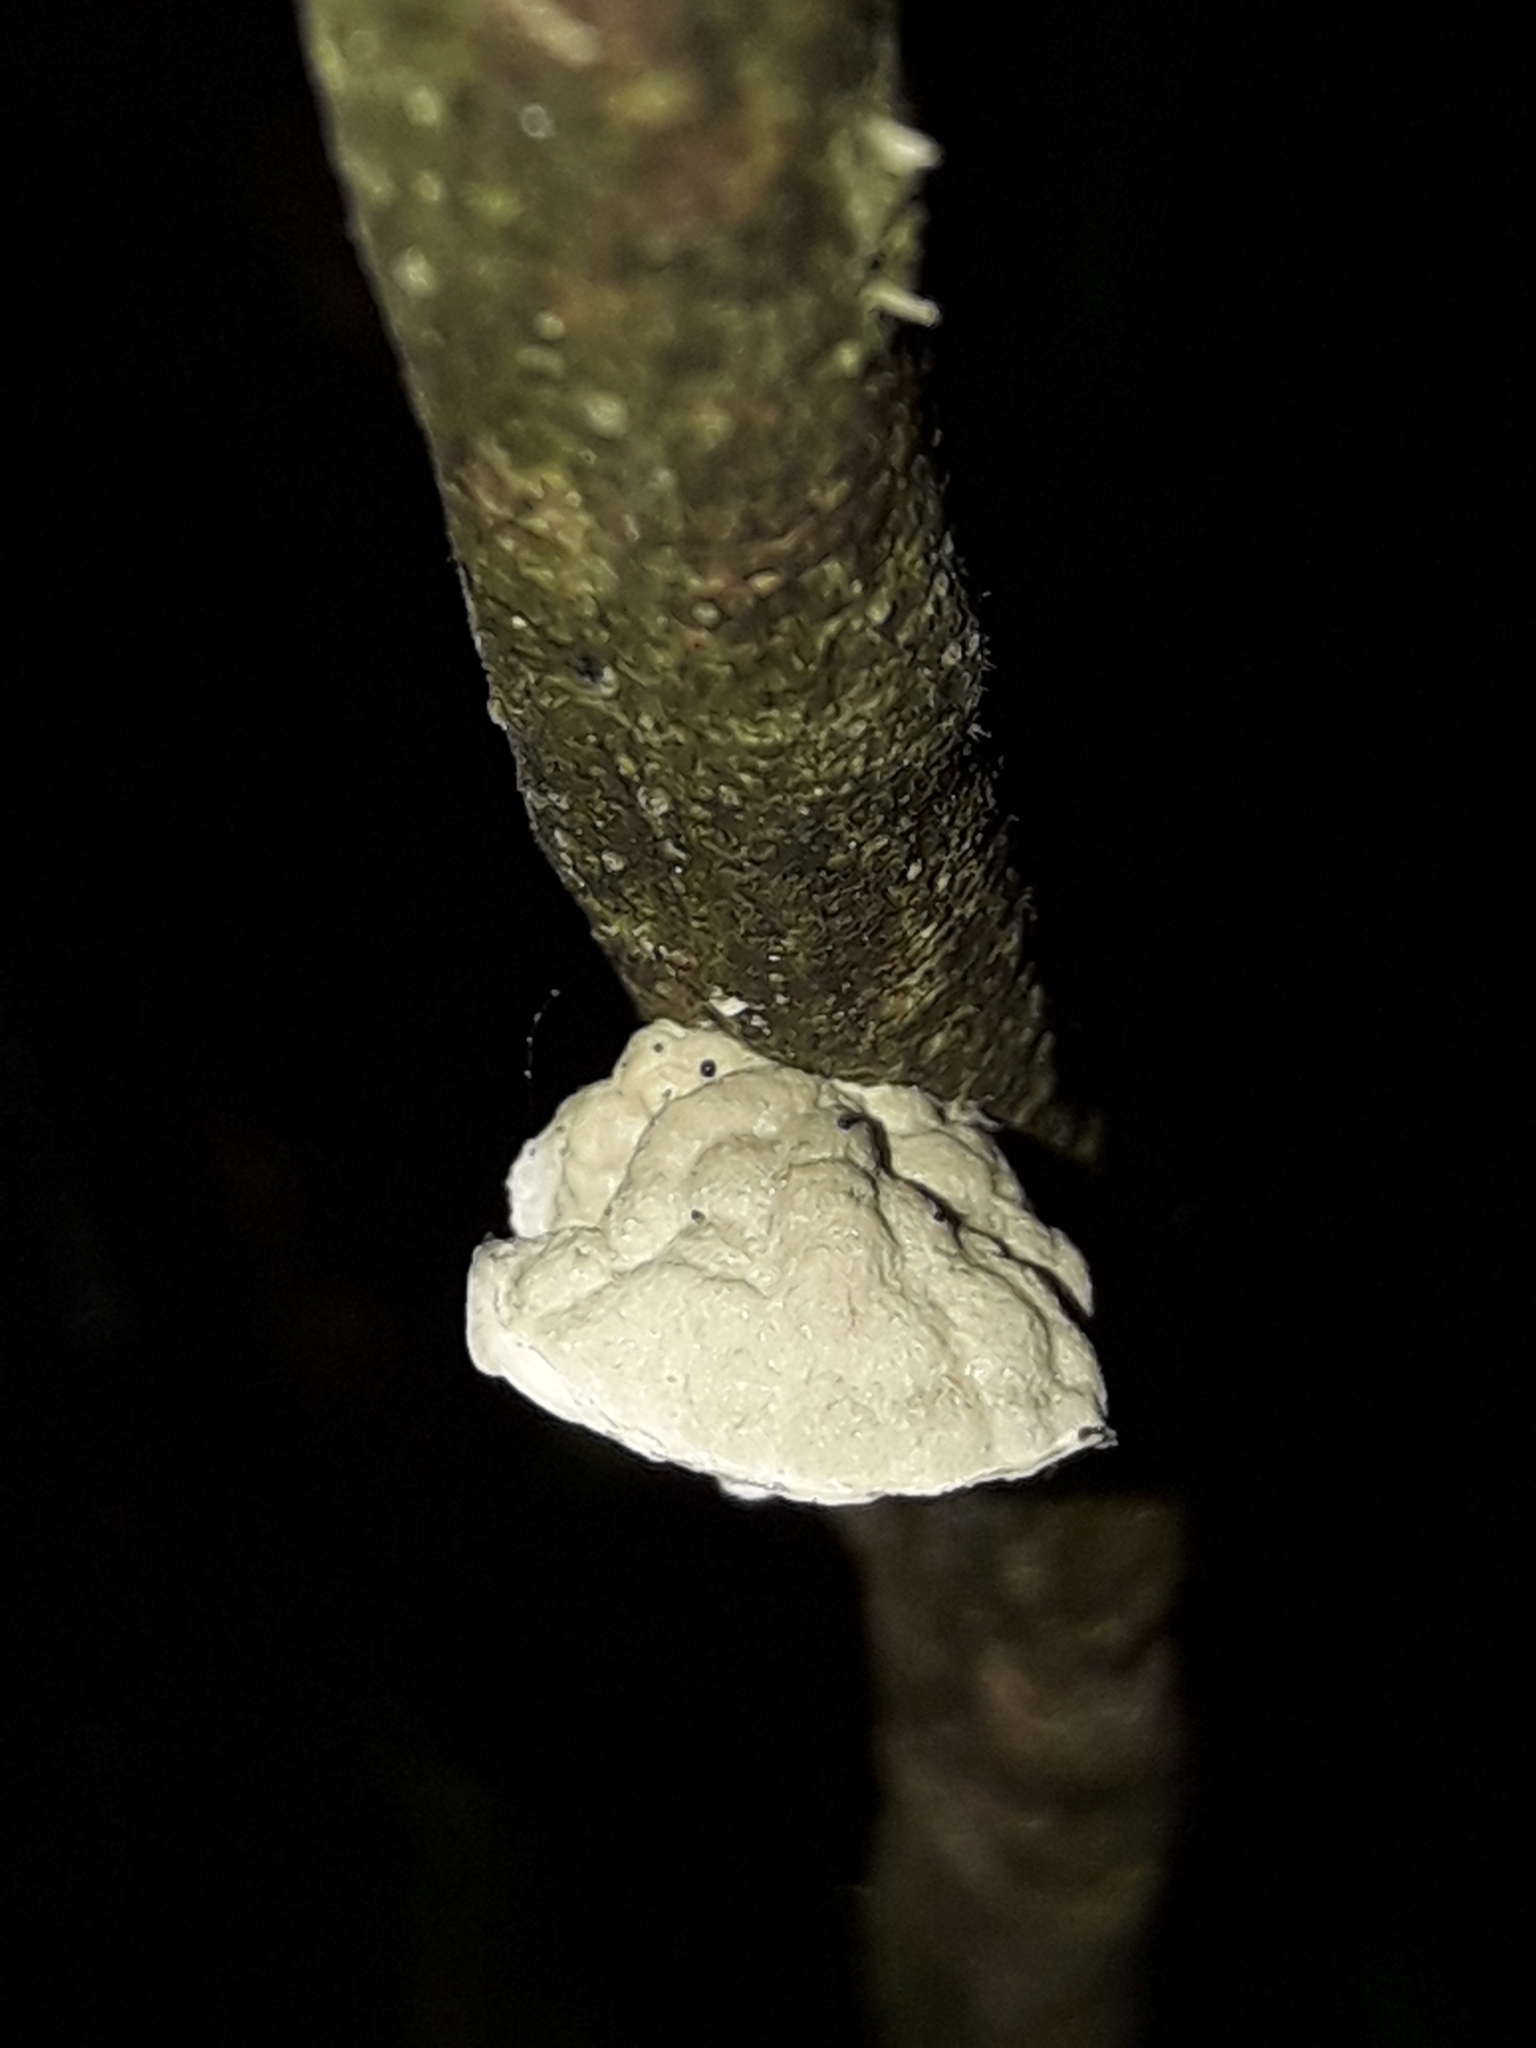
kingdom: Fungi
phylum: Basidiomycota
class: Agaricomycetes
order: Agaricales
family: Marasmiaceae
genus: Campanella
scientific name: Campanella tristis
